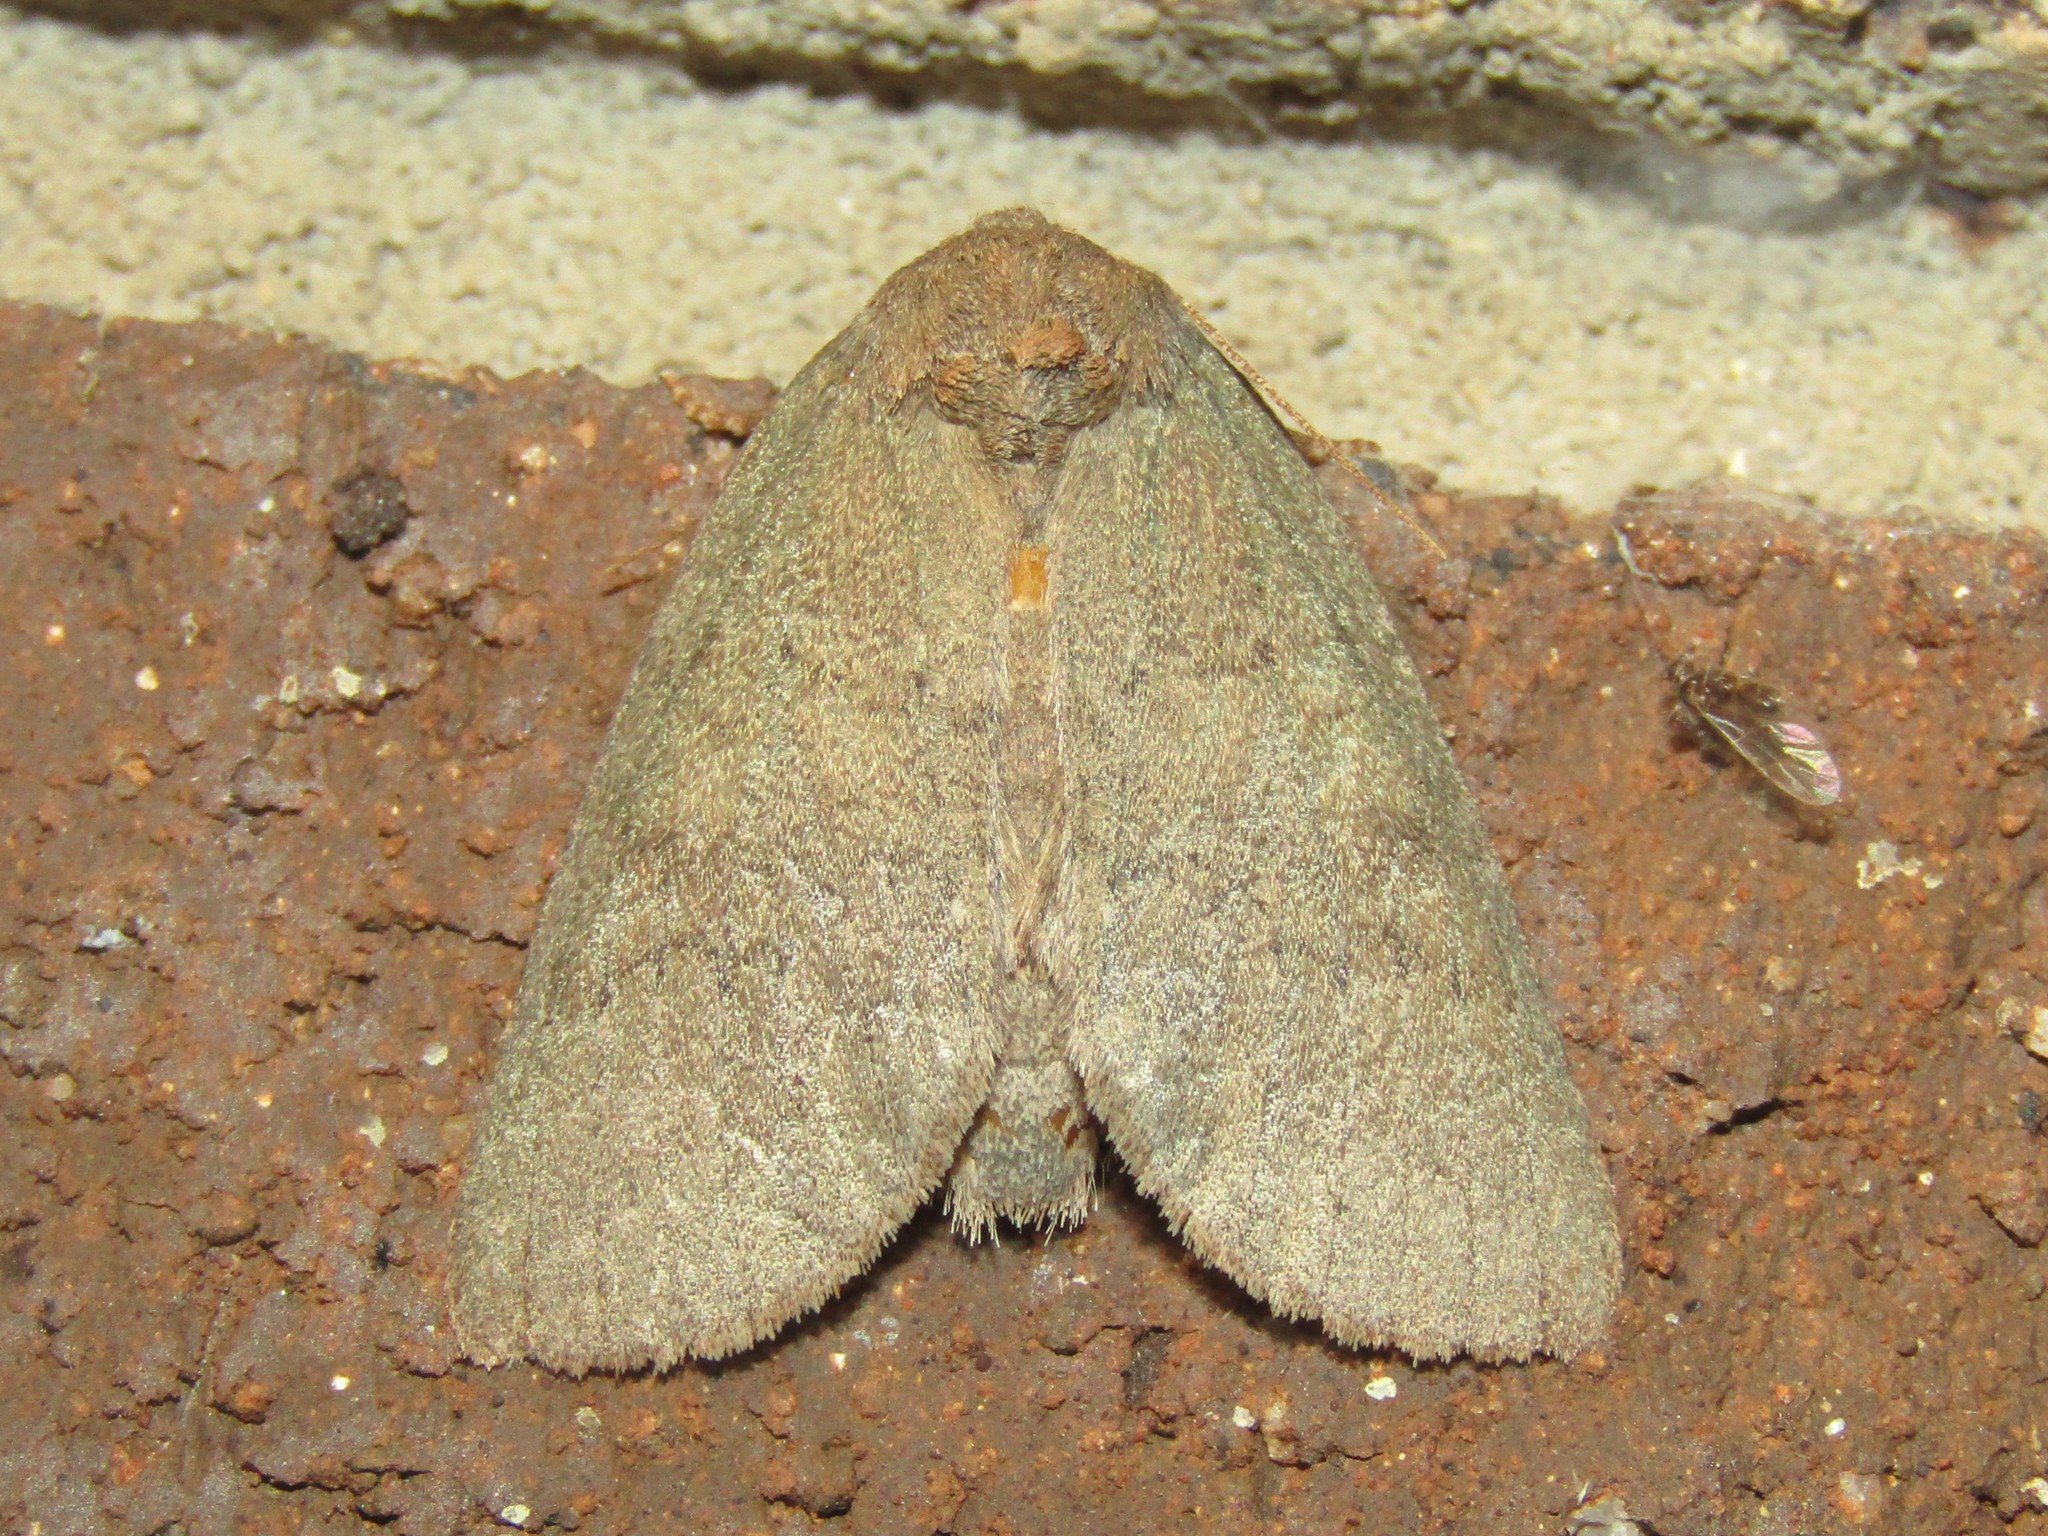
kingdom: Animalia
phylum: Arthropoda
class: Insecta
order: Lepidoptera
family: Notodontidae
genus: Misogada
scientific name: Misogada unicolor
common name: Drab prominent
